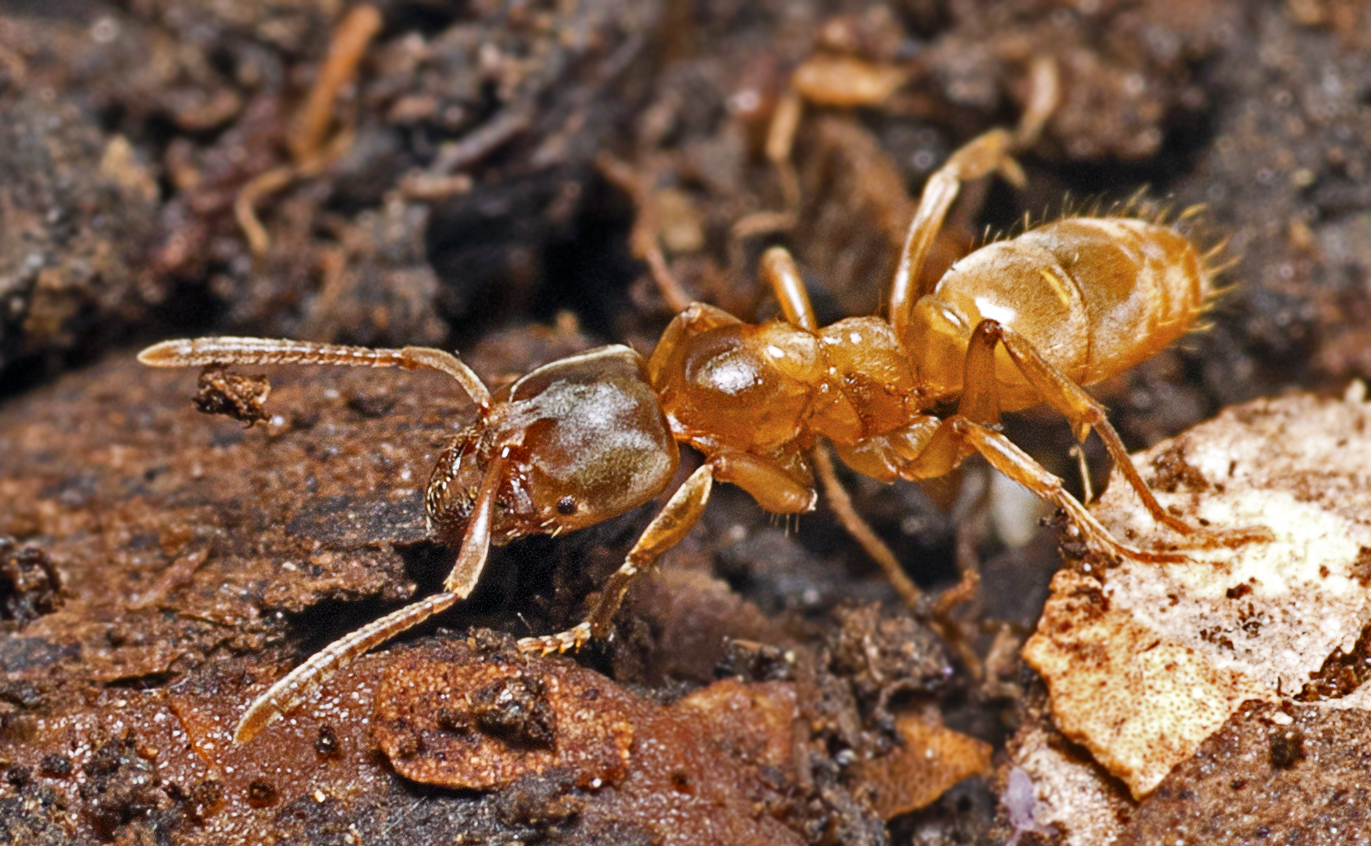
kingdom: Animalia
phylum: Arthropoda
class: Insecta
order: Hymenoptera
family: Formicidae
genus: Brachyponera
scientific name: Brachyponera
